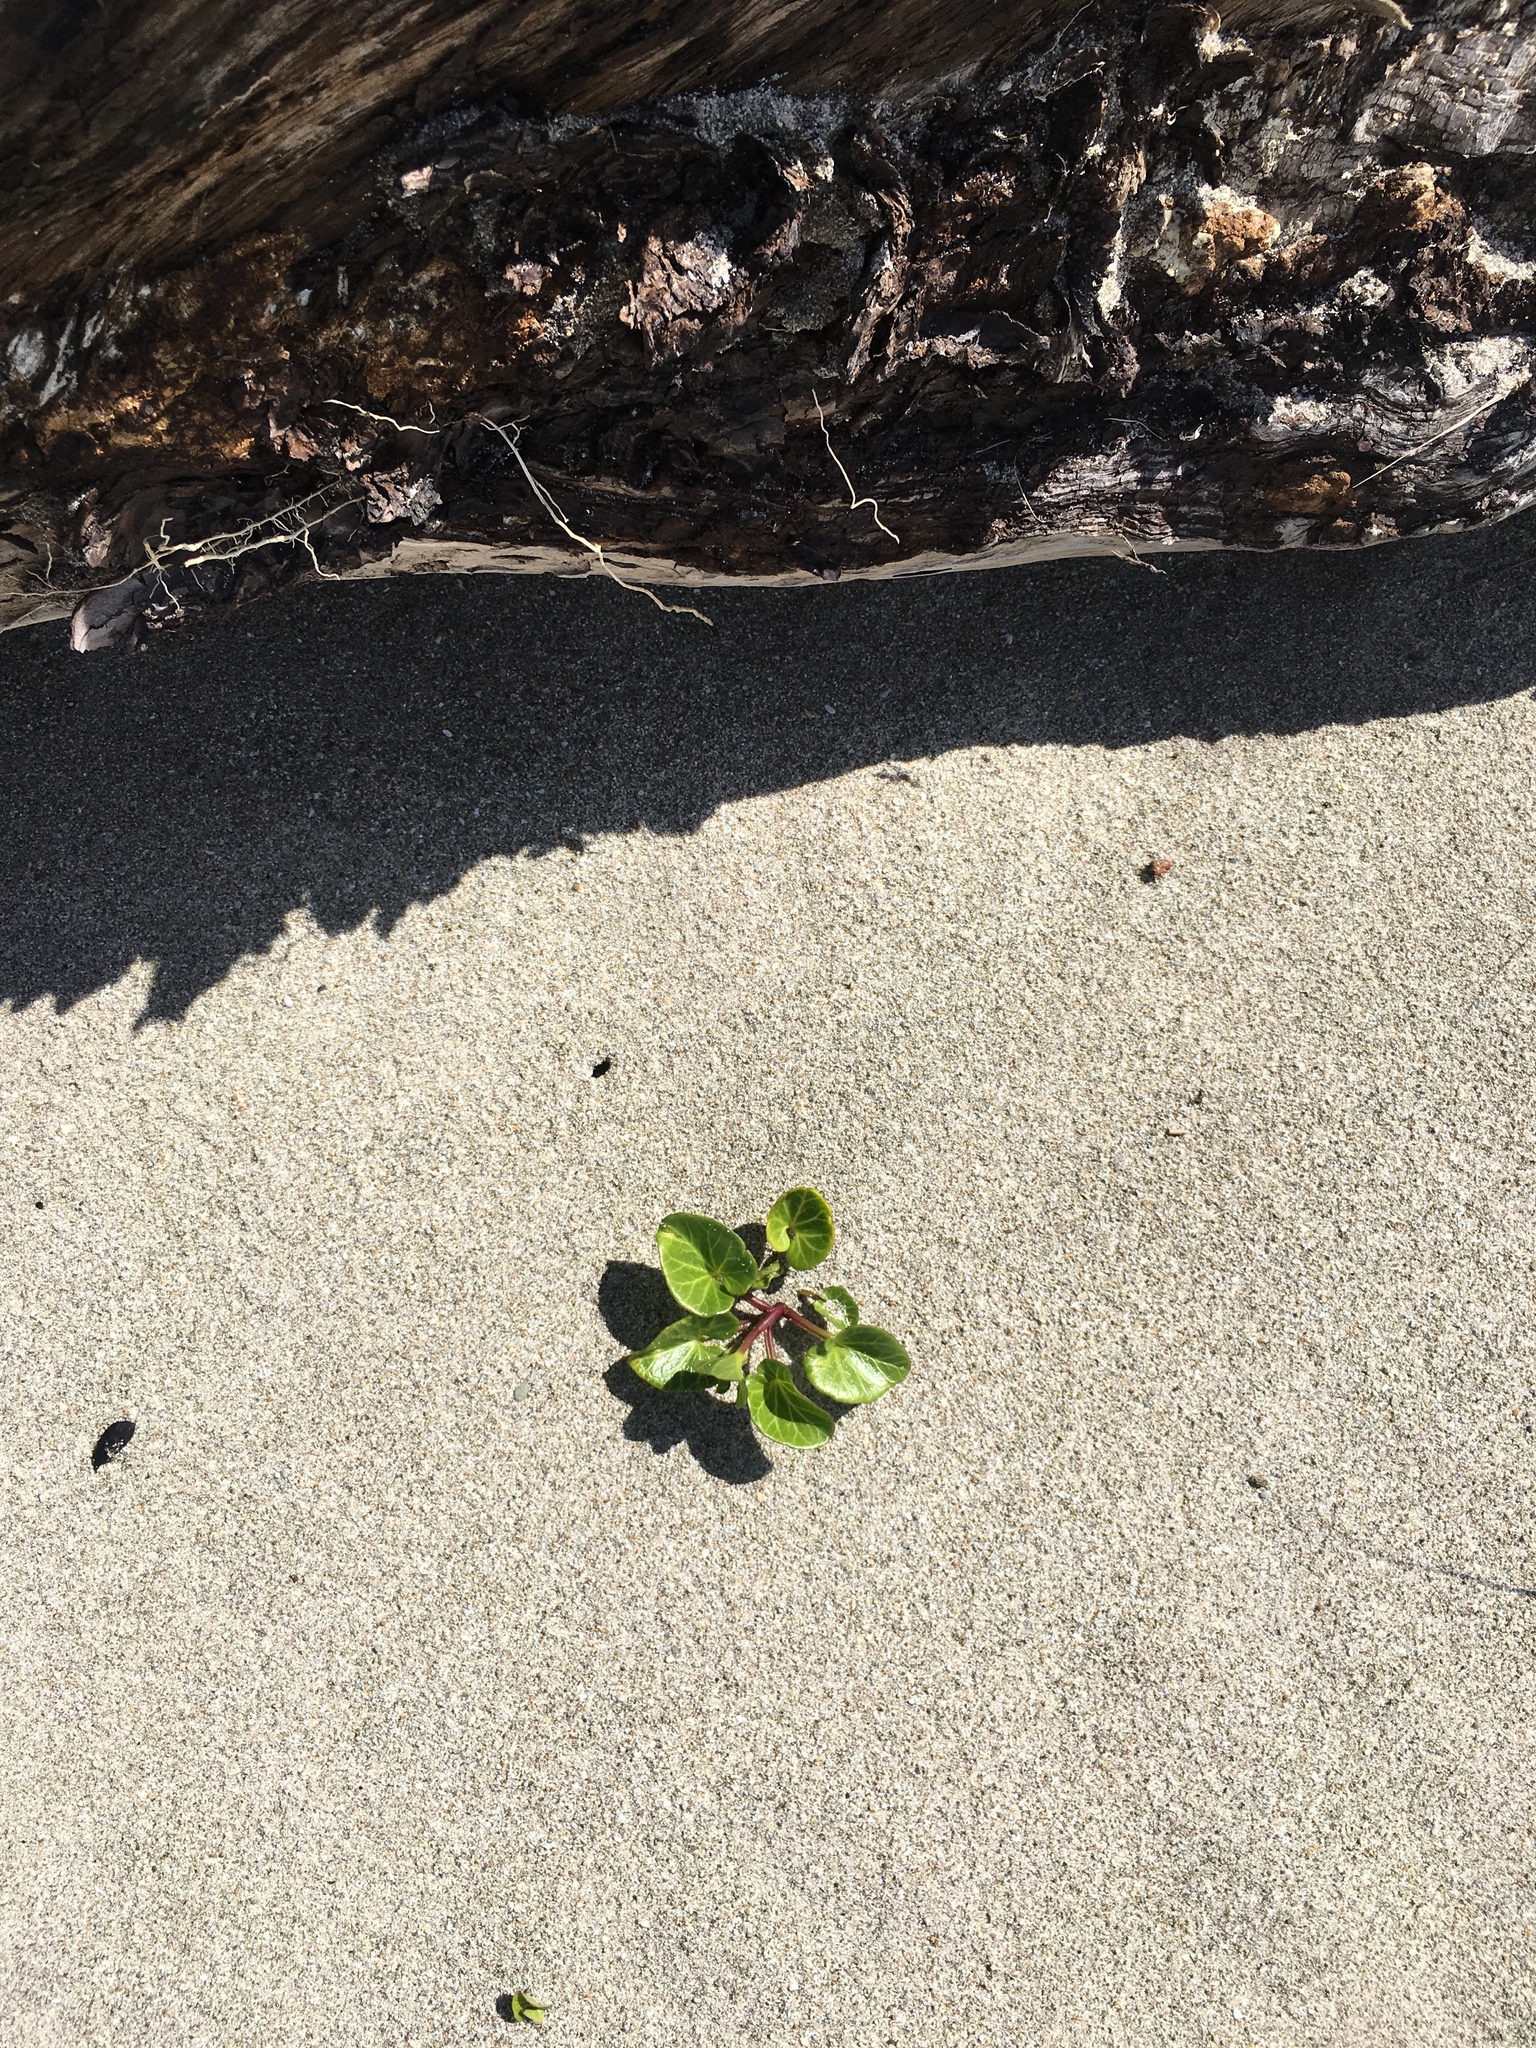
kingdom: Plantae
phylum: Tracheophyta
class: Magnoliopsida
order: Solanales
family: Convolvulaceae
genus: Calystegia
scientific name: Calystegia soldanella
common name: Sea bindweed
